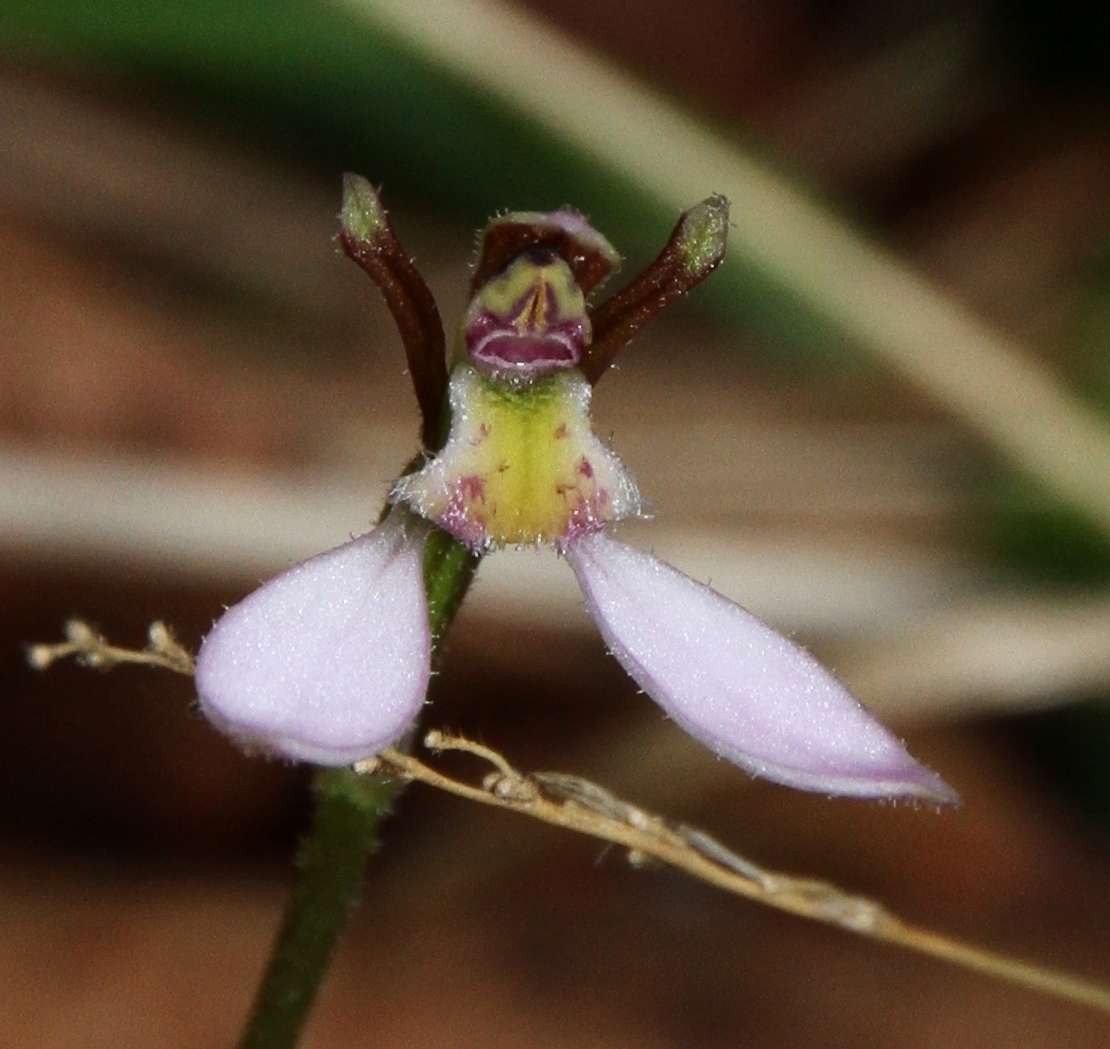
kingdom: Plantae
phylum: Tracheophyta
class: Liliopsida
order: Asparagales
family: Orchidaceae
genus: Eriochilus
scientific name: Eriochilus cucullatus
